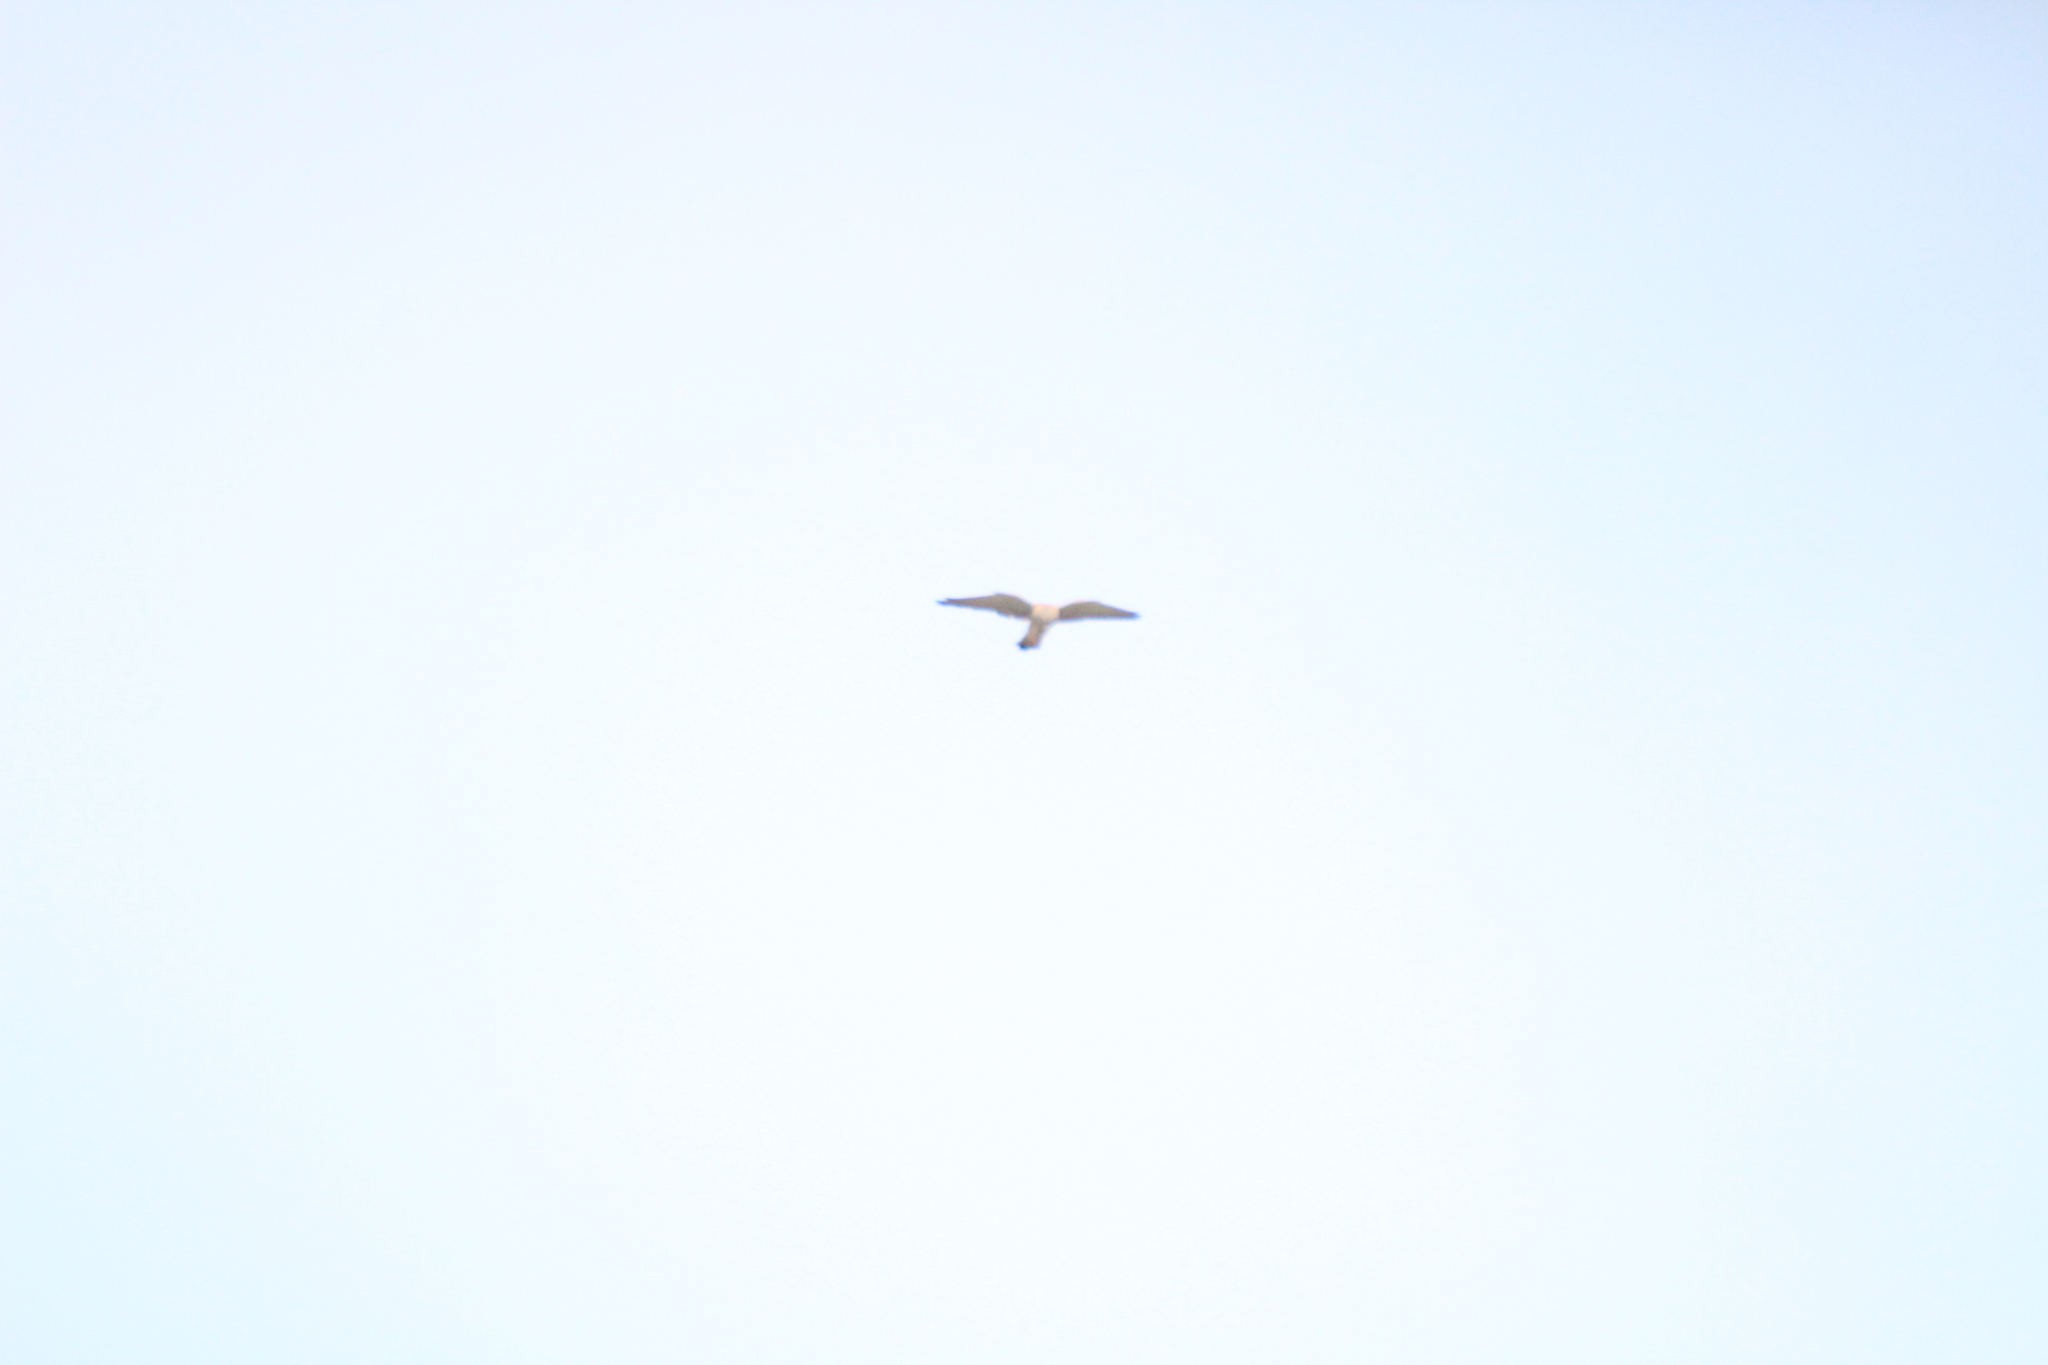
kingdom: Animalia
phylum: Chordata
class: Aves
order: Falconiformes
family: Falconidae
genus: Falco
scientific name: Falco tinnunculus
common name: Common kestrel
